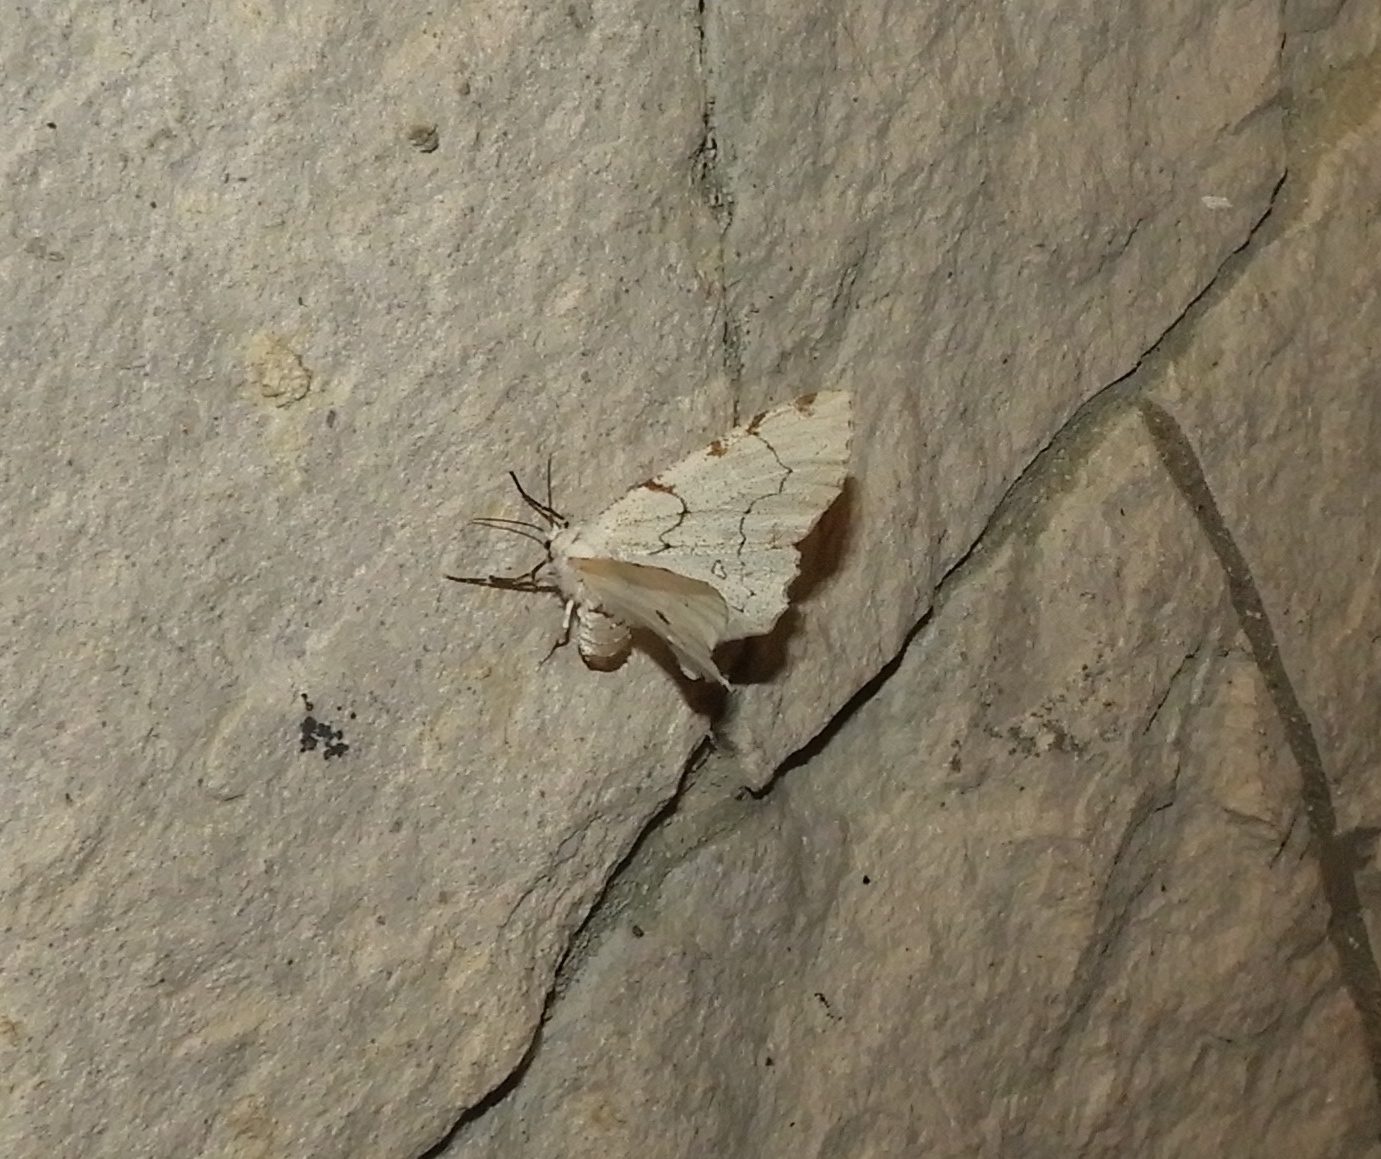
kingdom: Animalia
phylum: Arthropoda
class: Insecta
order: Lepidoptera
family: Geometridae
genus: Thyrinteina
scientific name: Thyrinteina arnobia
